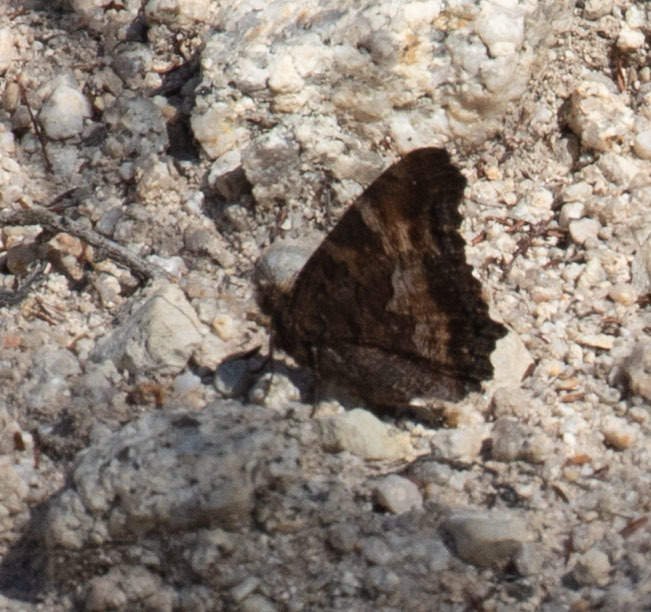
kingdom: Animalia
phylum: Arthropoda
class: Insecta
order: Lepidoptera
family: Nymphalidae
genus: Nymphalis
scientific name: Nymphalis californica
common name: California tortoiseshell
